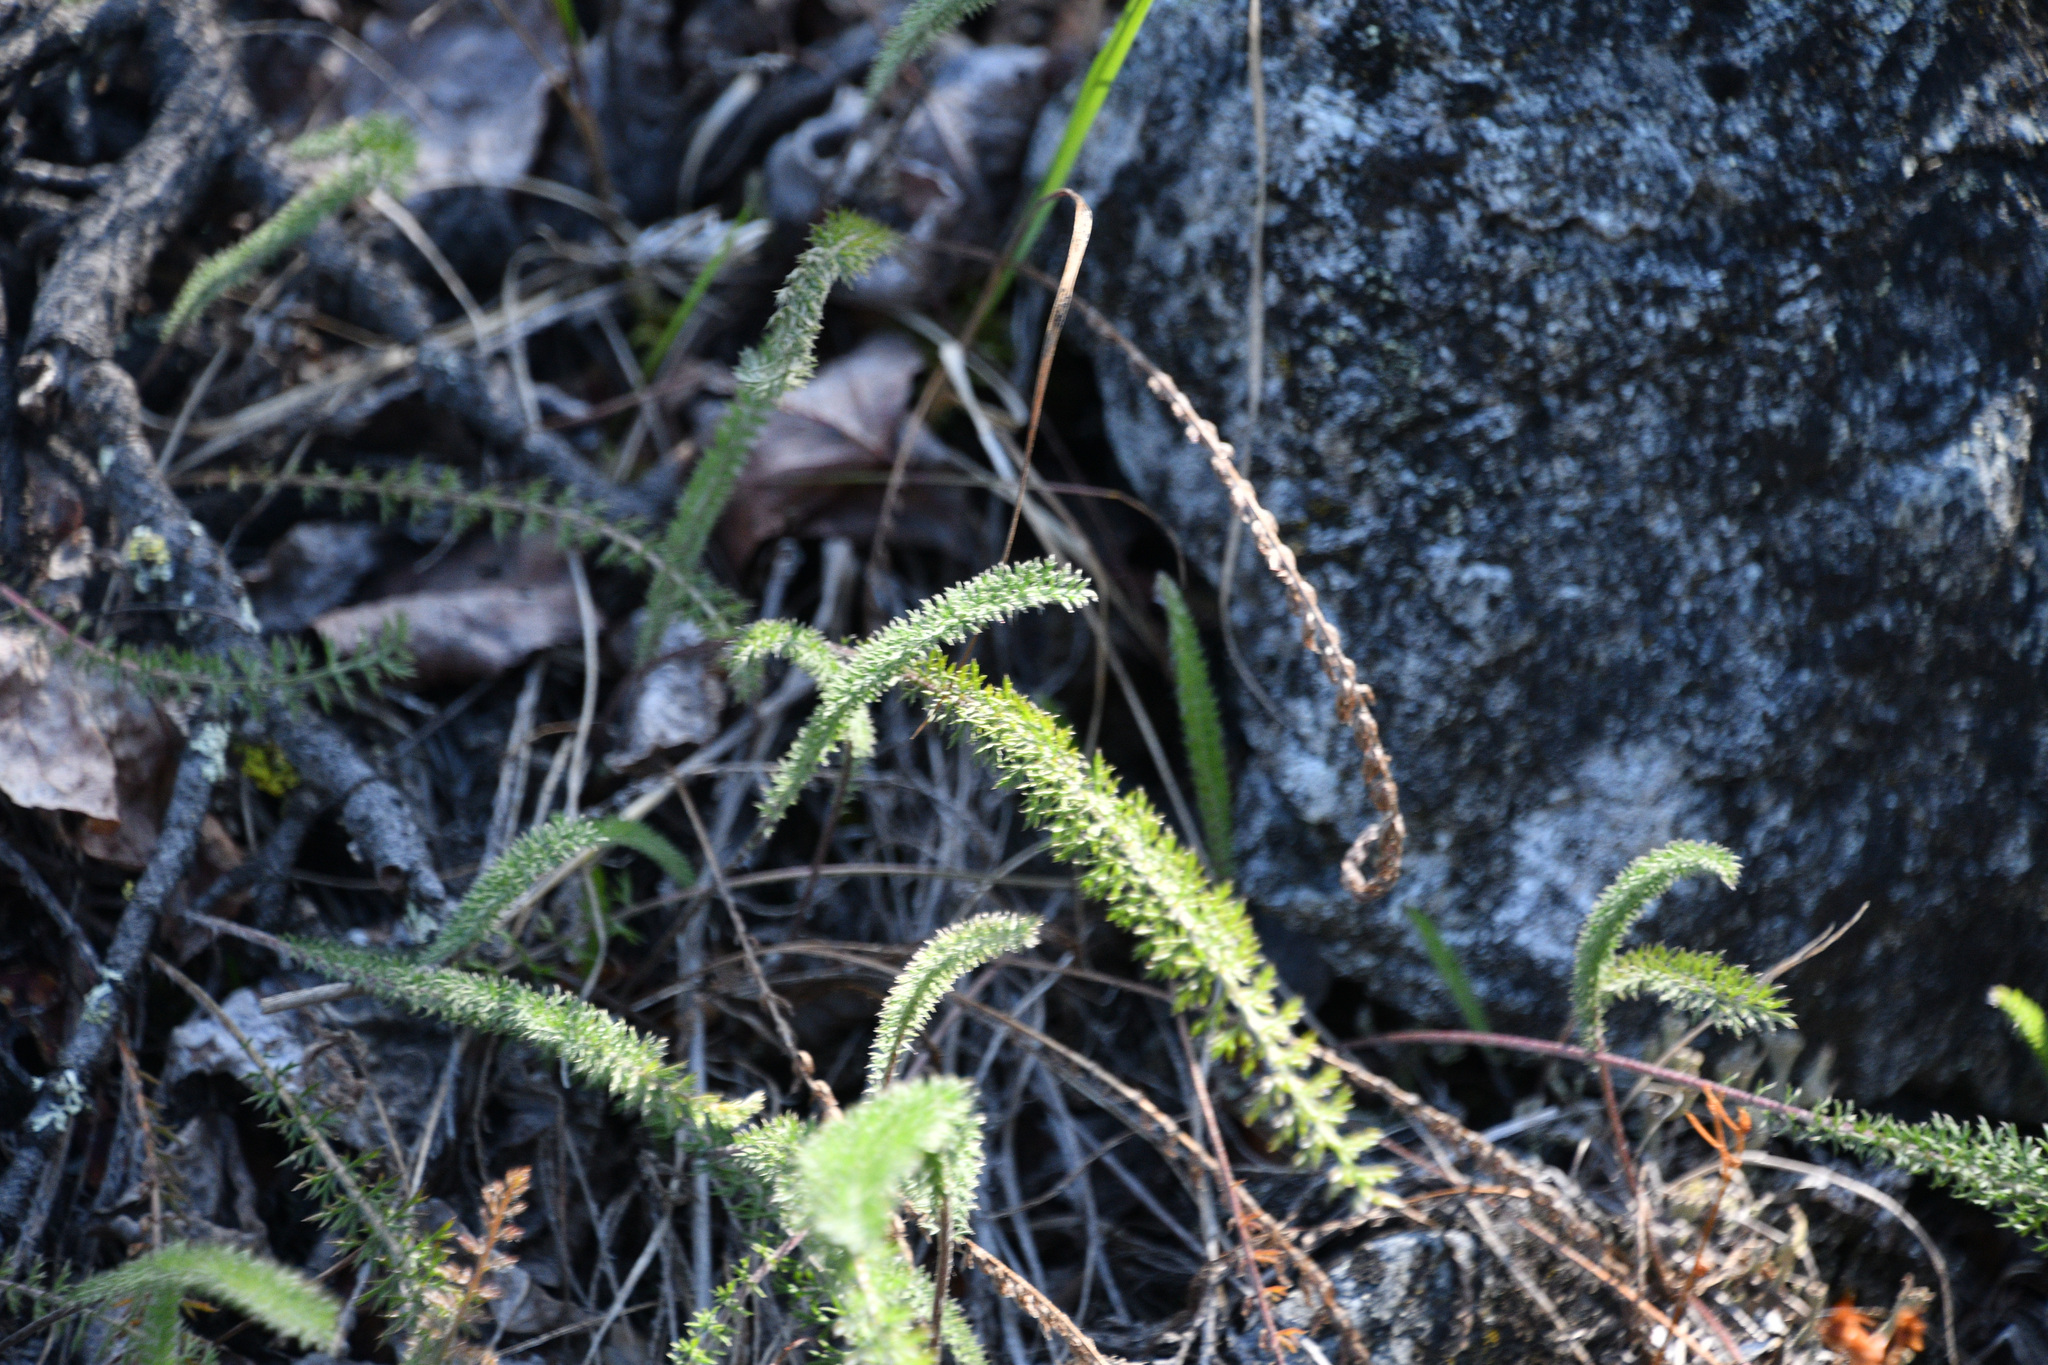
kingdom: Plantae
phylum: Tracheophyta
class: Magnoliopsida
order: Asterales
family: Asteraceae
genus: Achillea
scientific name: Achillea millefolium
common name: Yarrow
